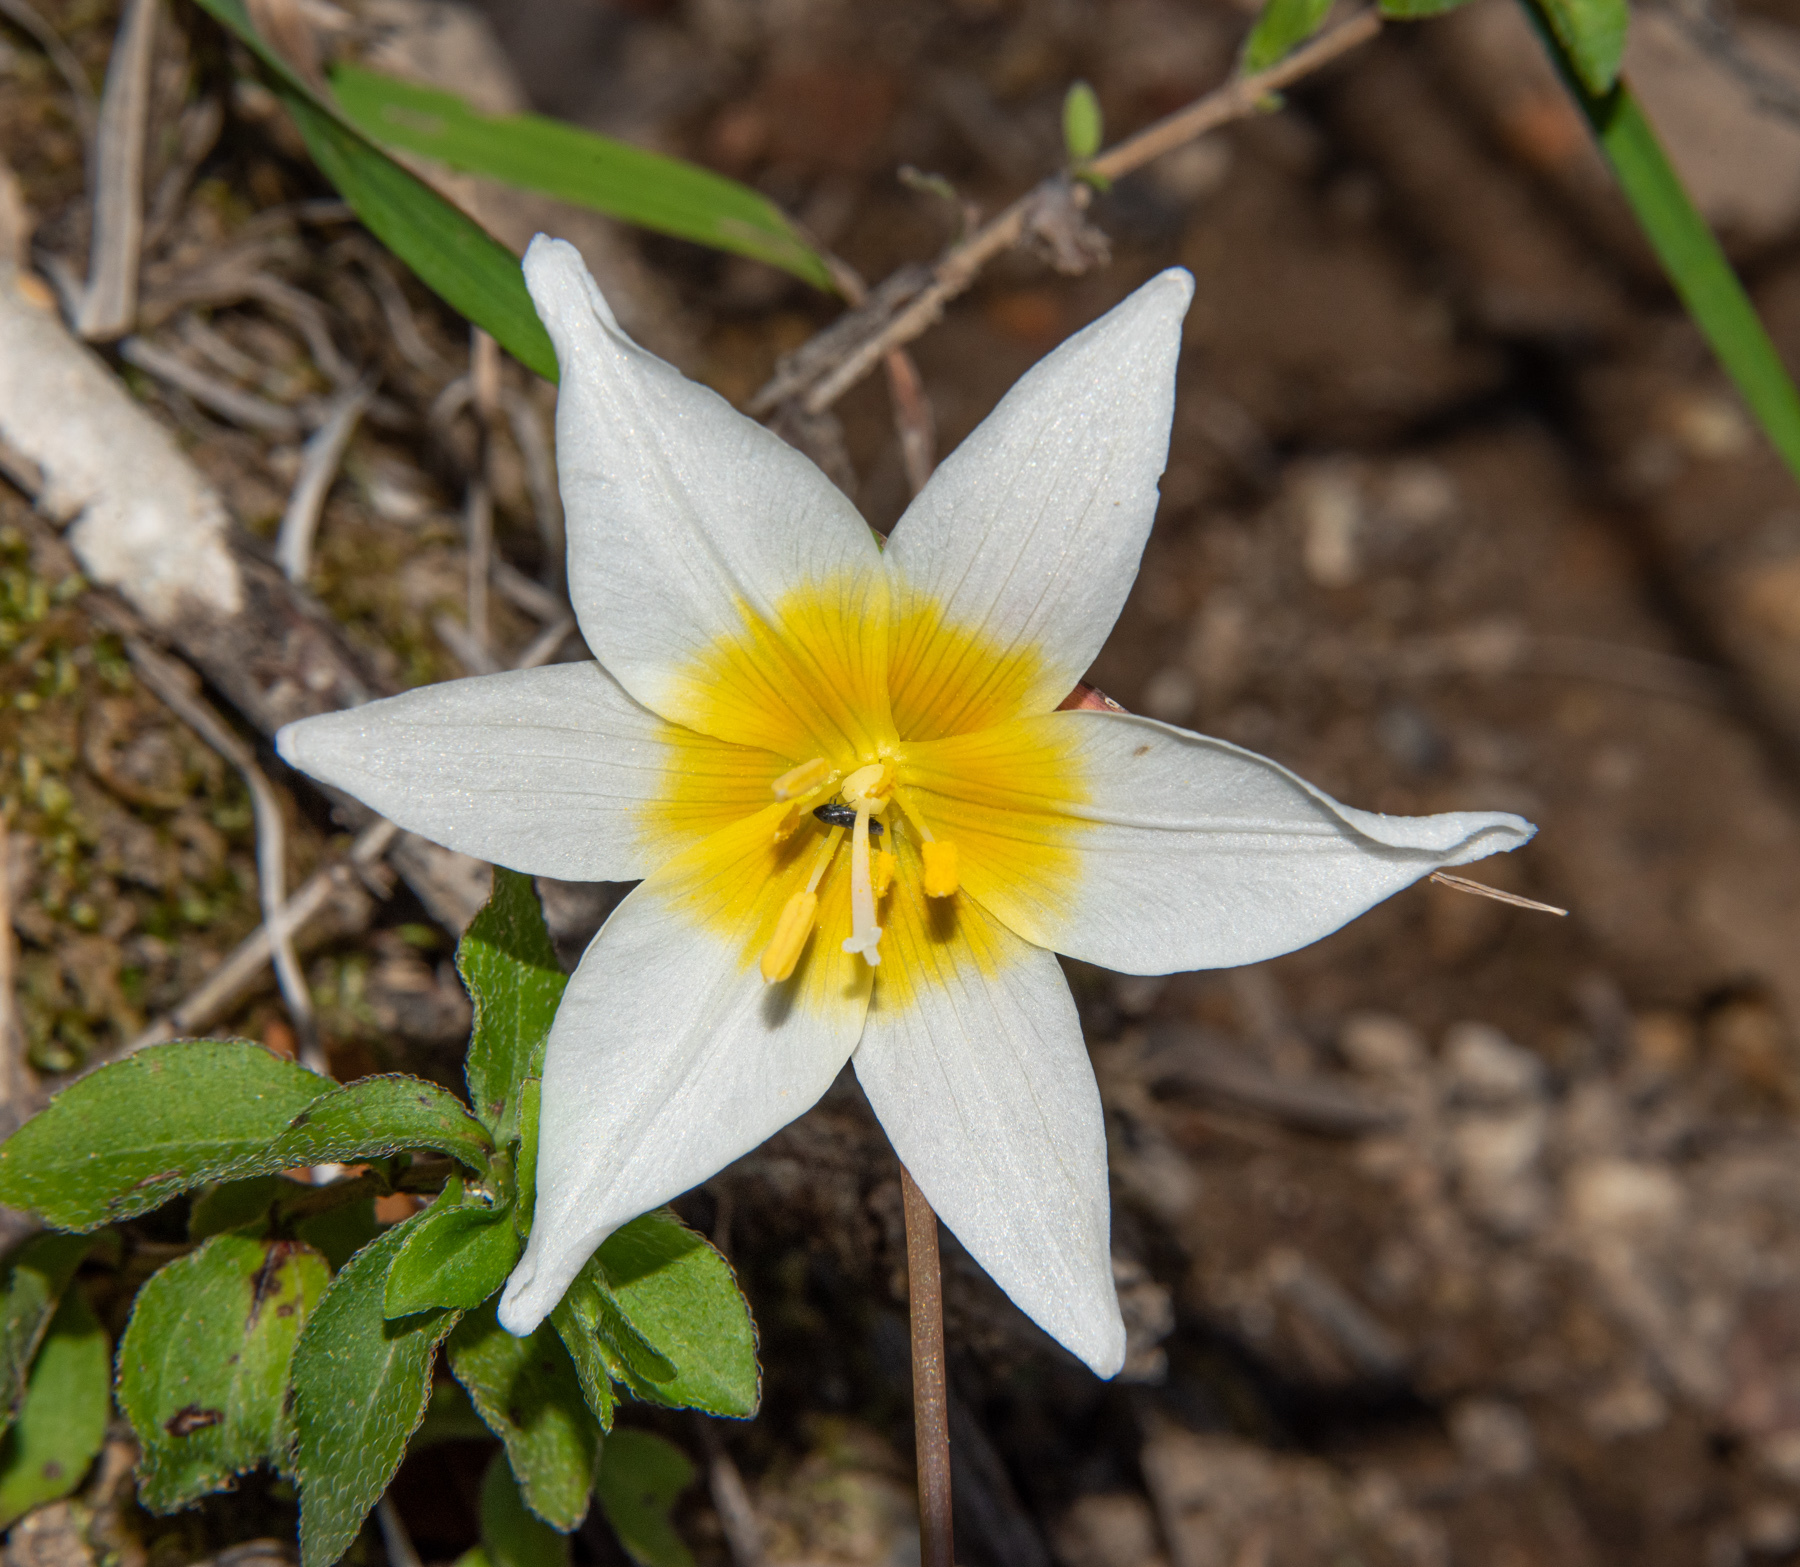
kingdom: Plantae
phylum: Tracheophyta
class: Liliopsida
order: Liliales
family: Liliaceae
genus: Erythronium
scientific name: Erythronium helenae
